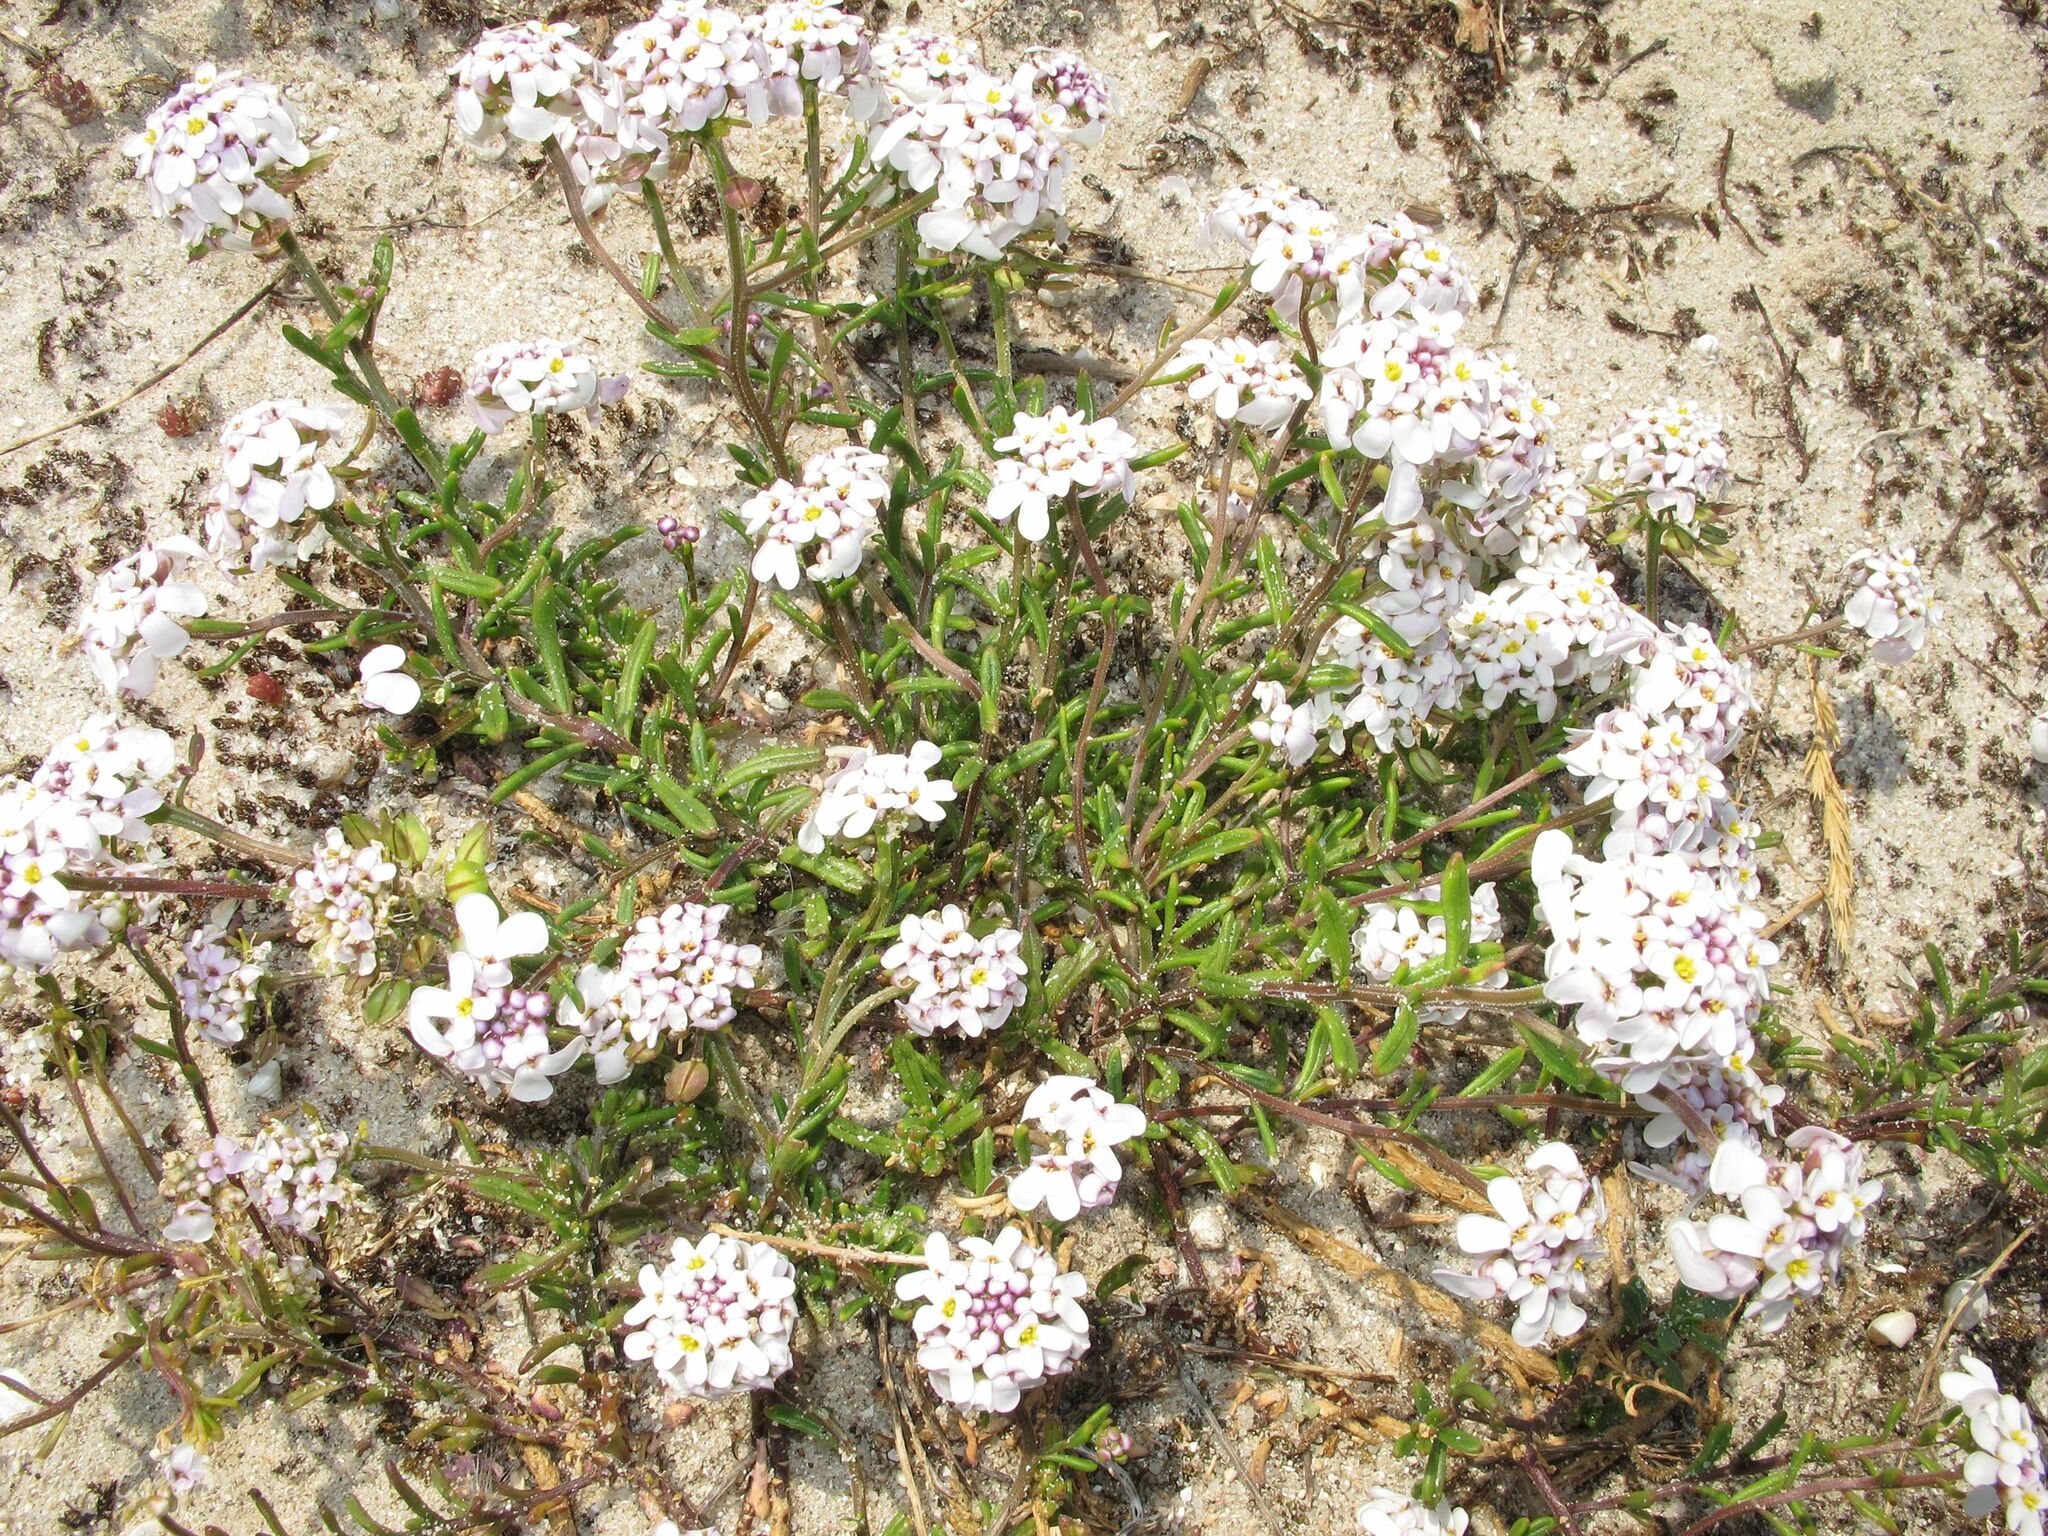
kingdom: Plantae
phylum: Tracheophyta
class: Magnoliopsida
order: Brassicales
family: Brassicaceae
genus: Iberis
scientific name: Iberis procumbens
